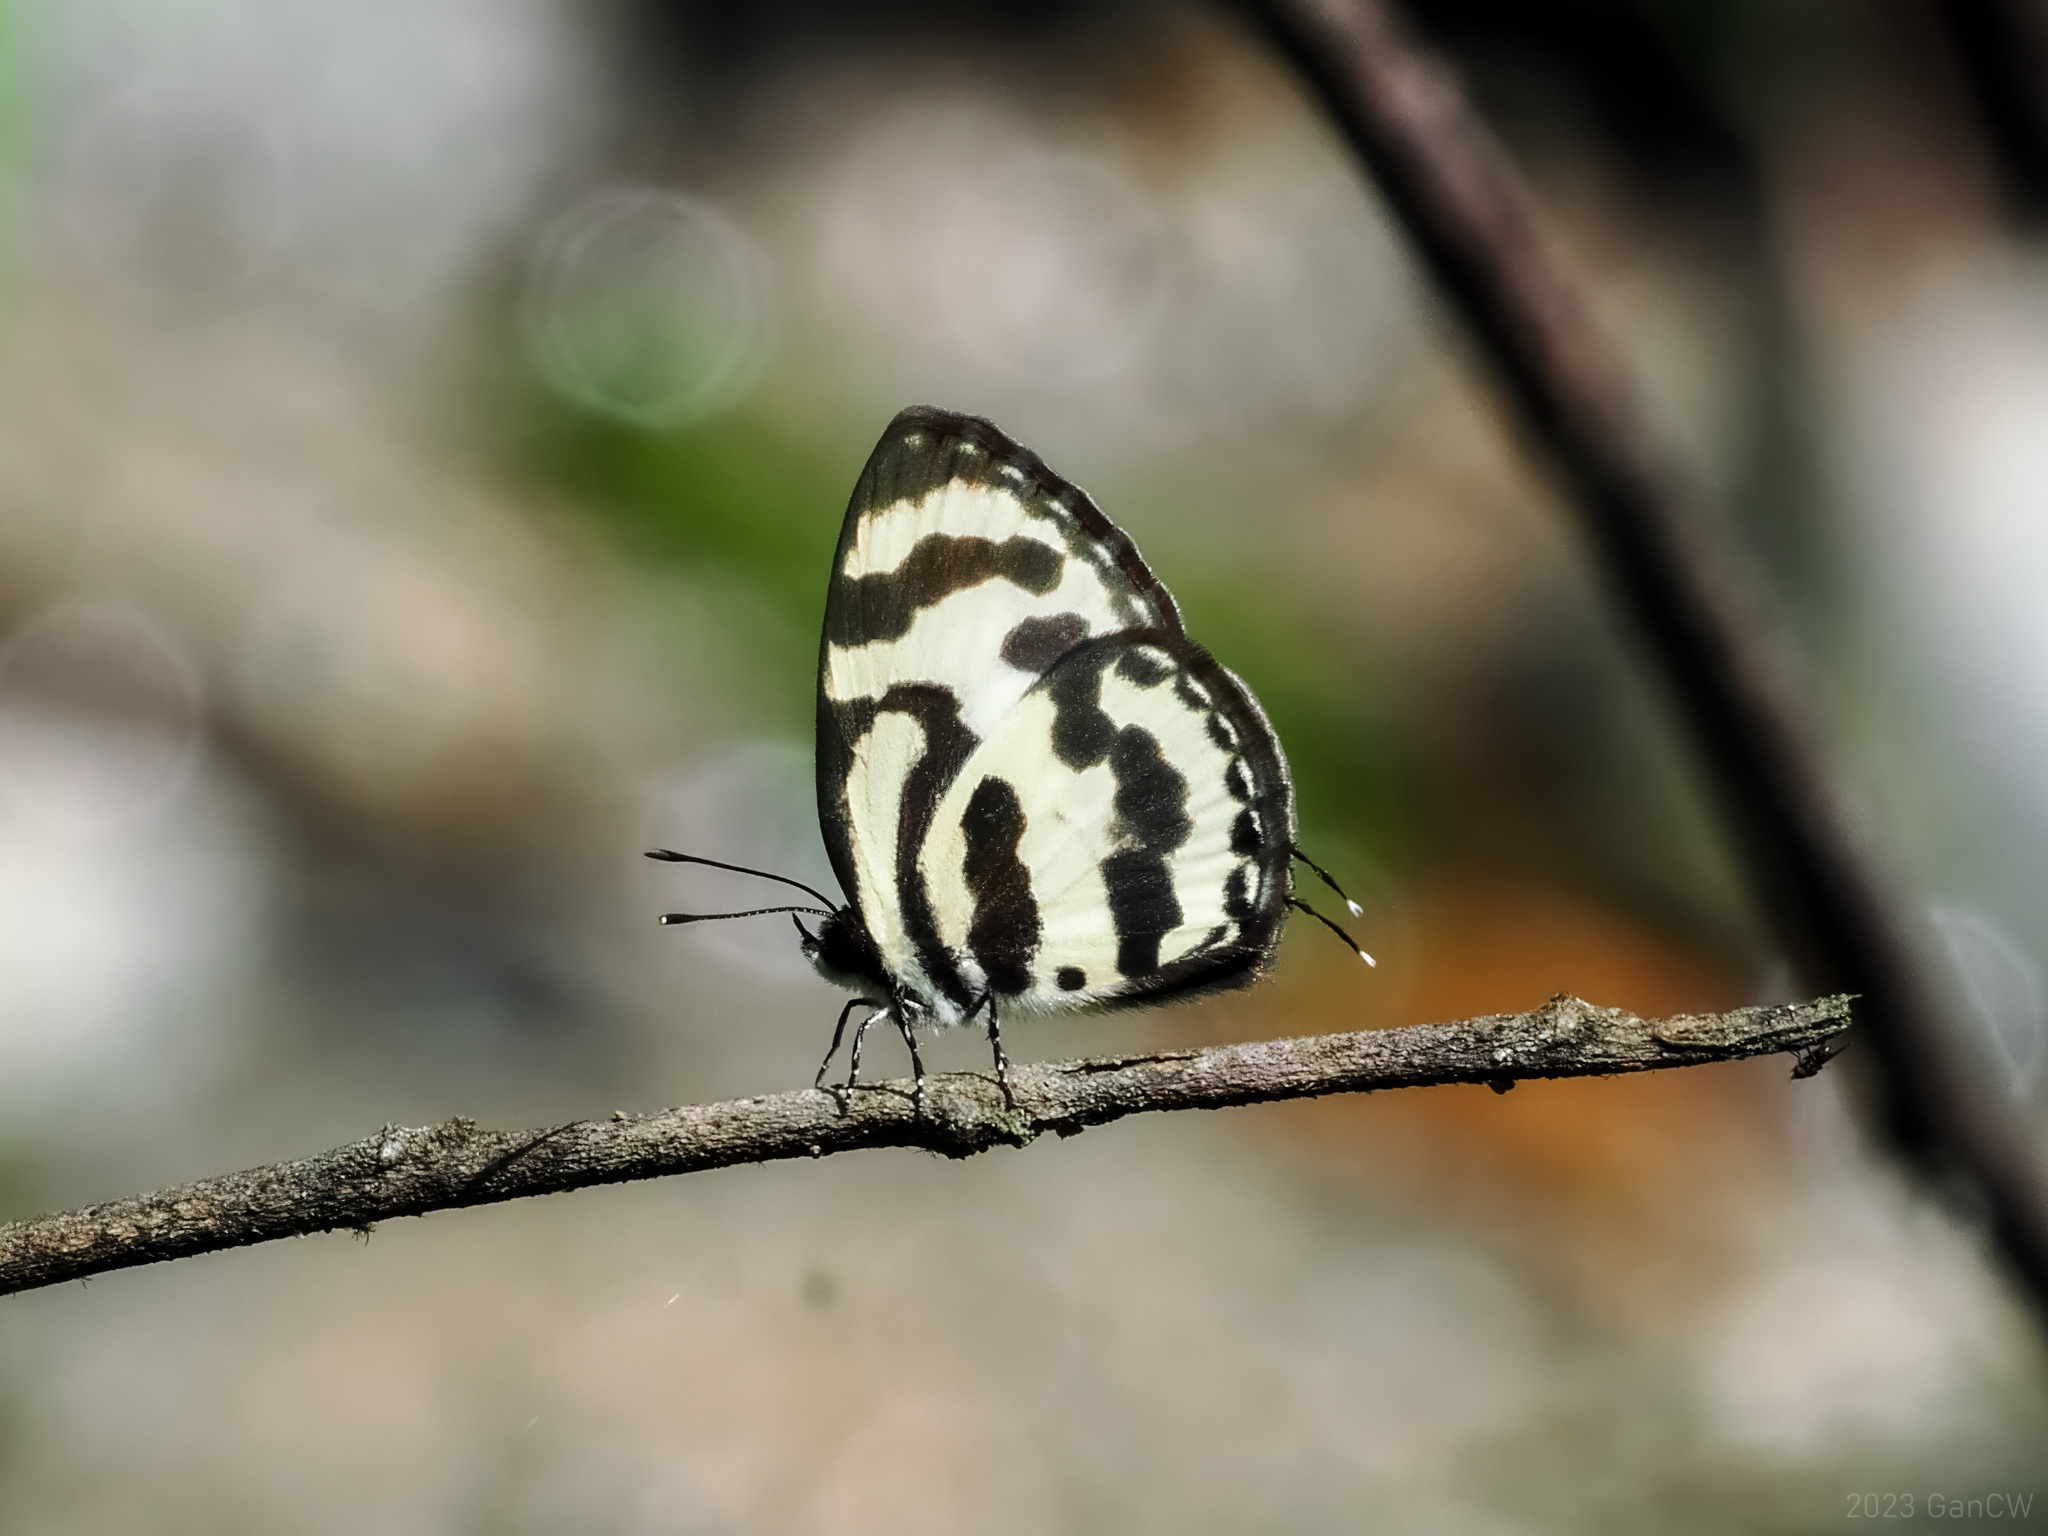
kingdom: Animalia
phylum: Arthropoda
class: Insecta
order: Lepidoptera
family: Lycaenidae
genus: Caleta
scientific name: Caleta caleta
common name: Angled pierrot
